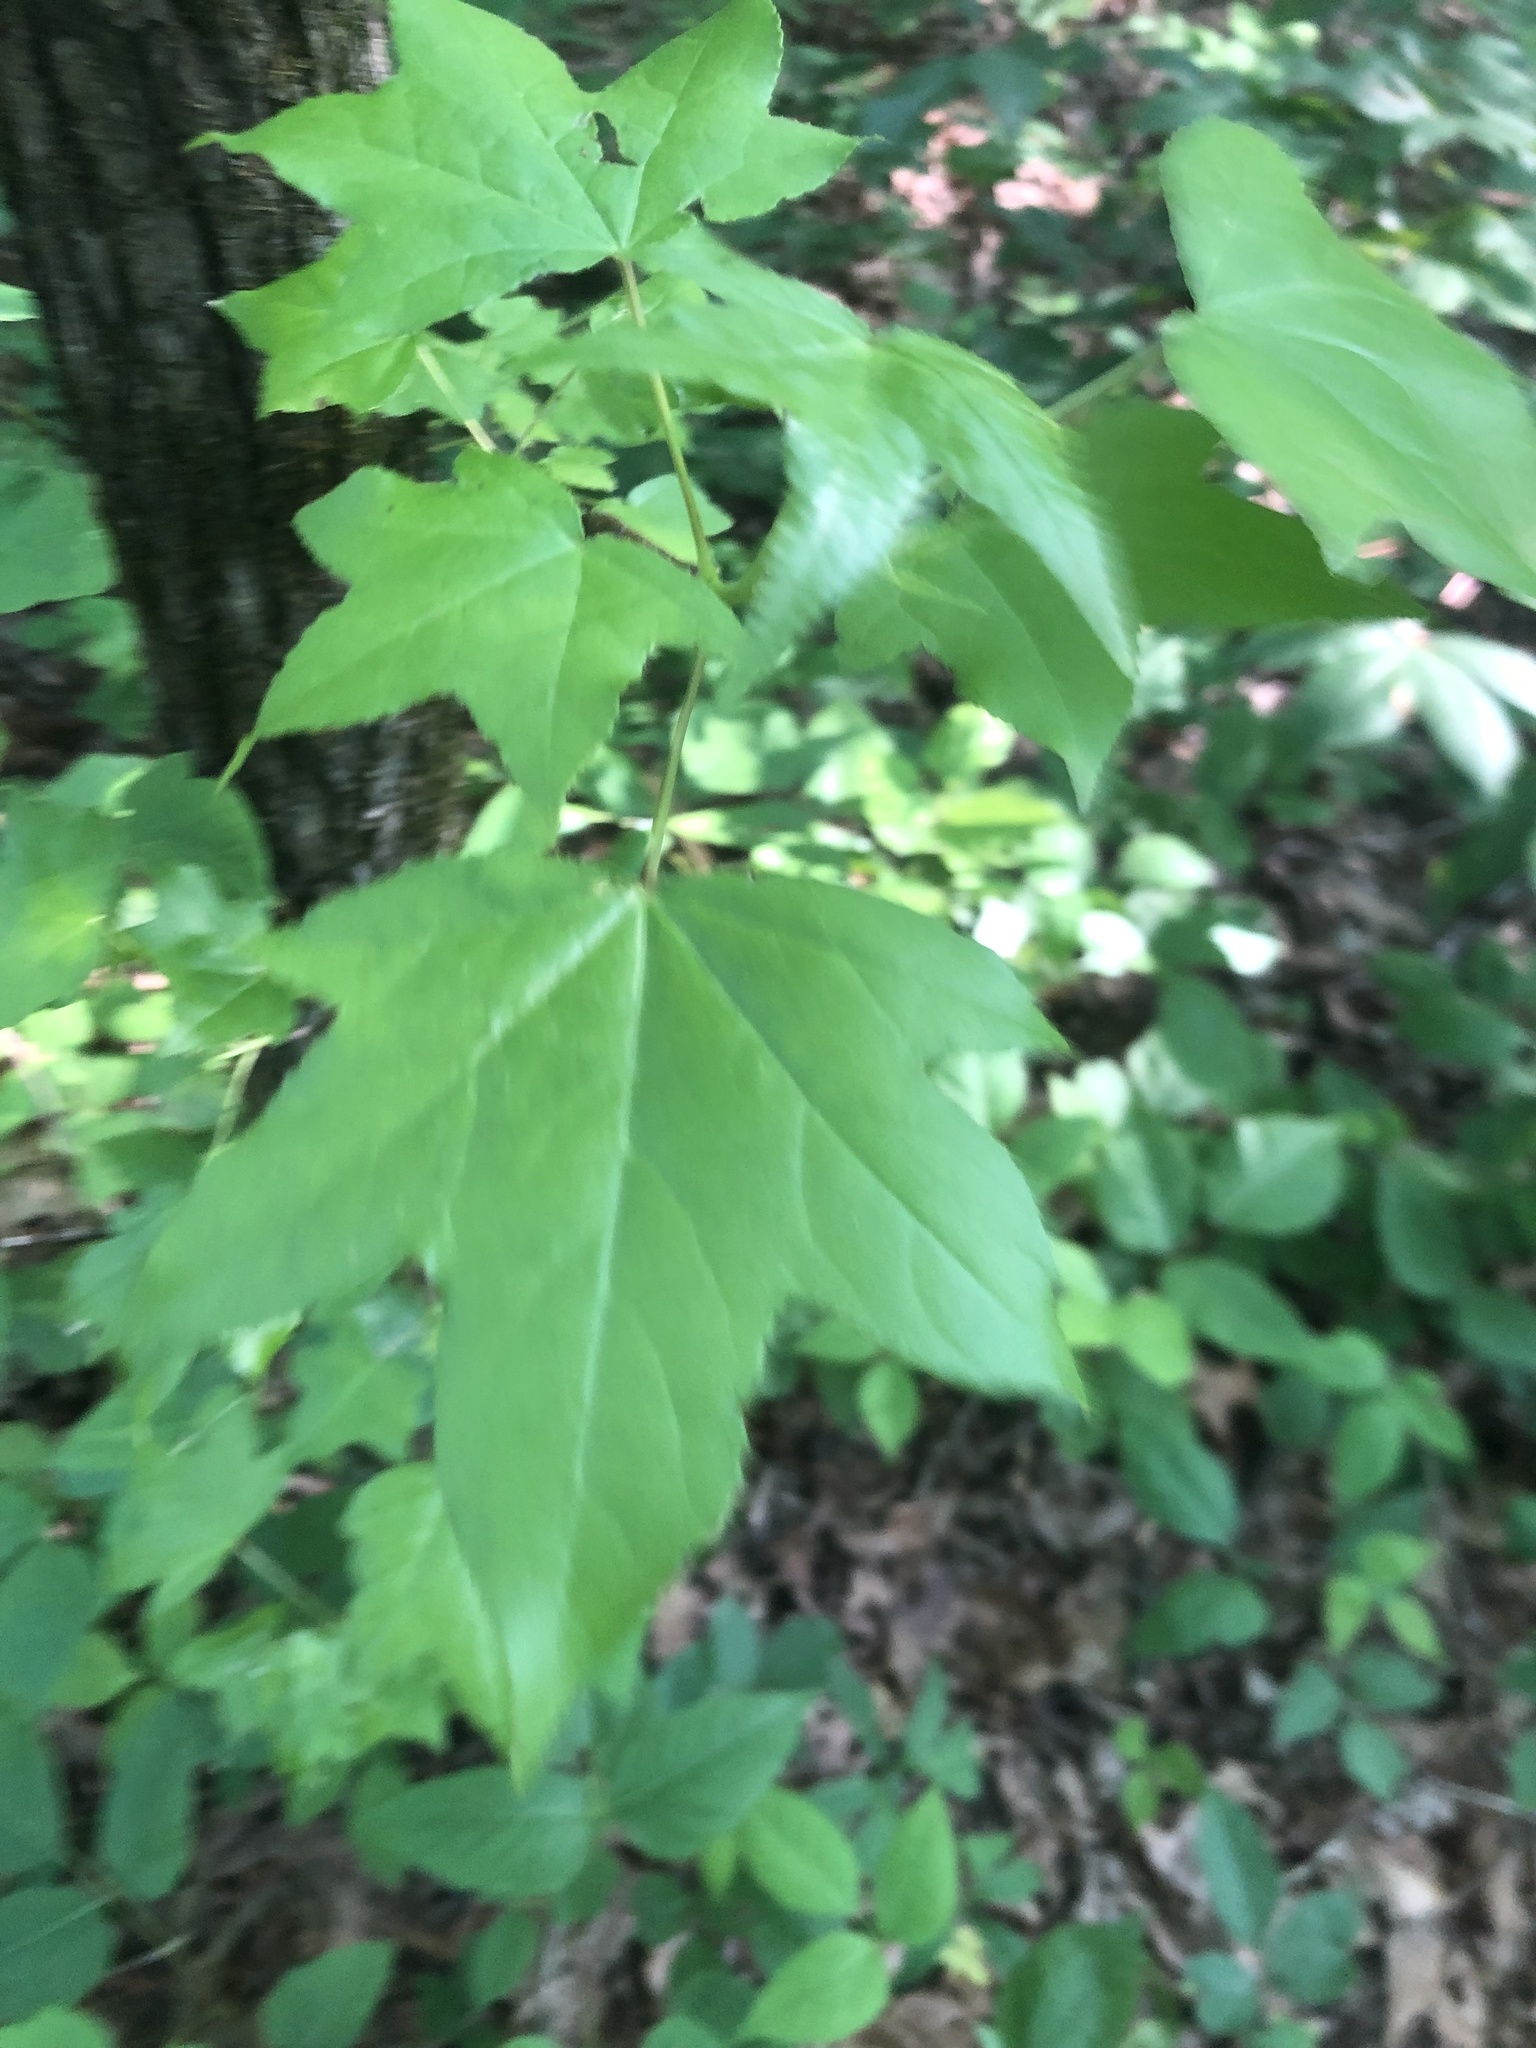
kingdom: Plantae
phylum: Tracheophyta
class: Magnoliopsida
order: Saxifragales
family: Altingiaceae
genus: Liquidambar
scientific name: Liquidambar styraciflua
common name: Sweet gum
